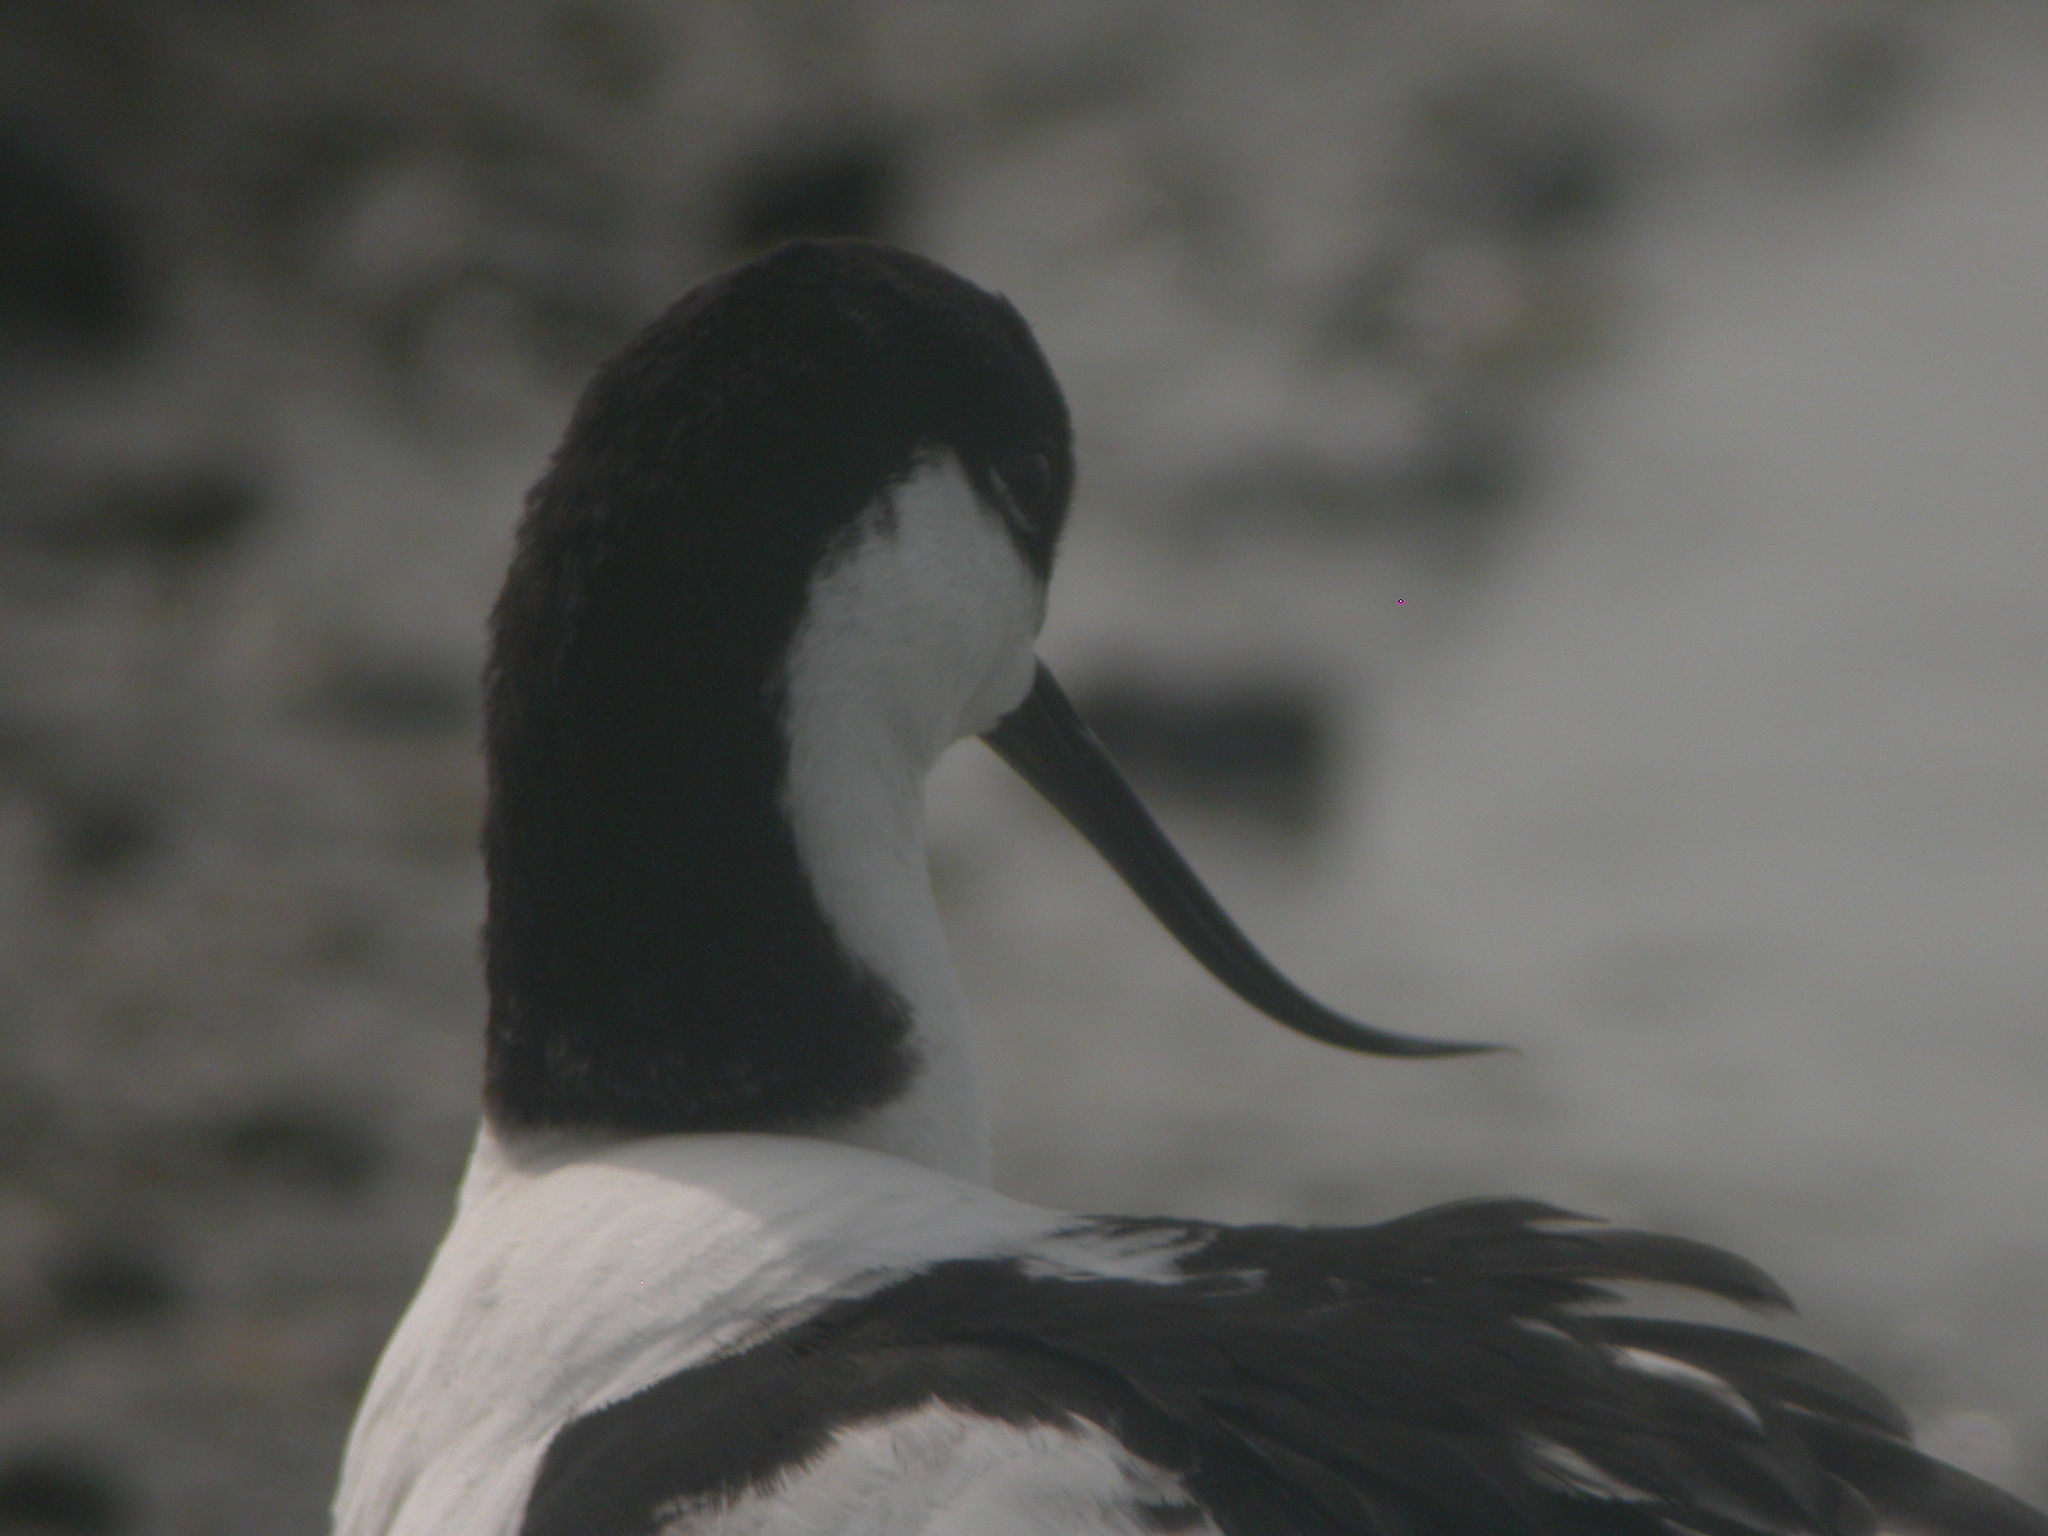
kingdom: Animalia
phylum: Chordata
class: Aves
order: Charadriiformes
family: Recurvirostridae
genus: Recurvirostra
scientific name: Recurvirostra avosetta
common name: Pied avocet
